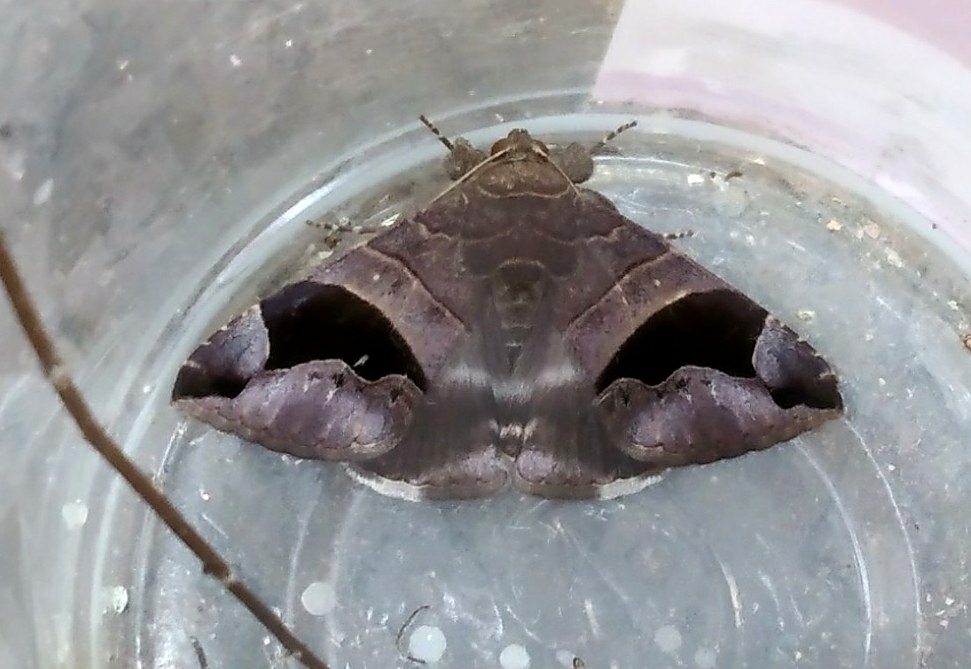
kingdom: Animalia
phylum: Arthropoda
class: Insecta
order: Lepidoptera
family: Erebidae
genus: Bastilla
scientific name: Bastilla joviana
